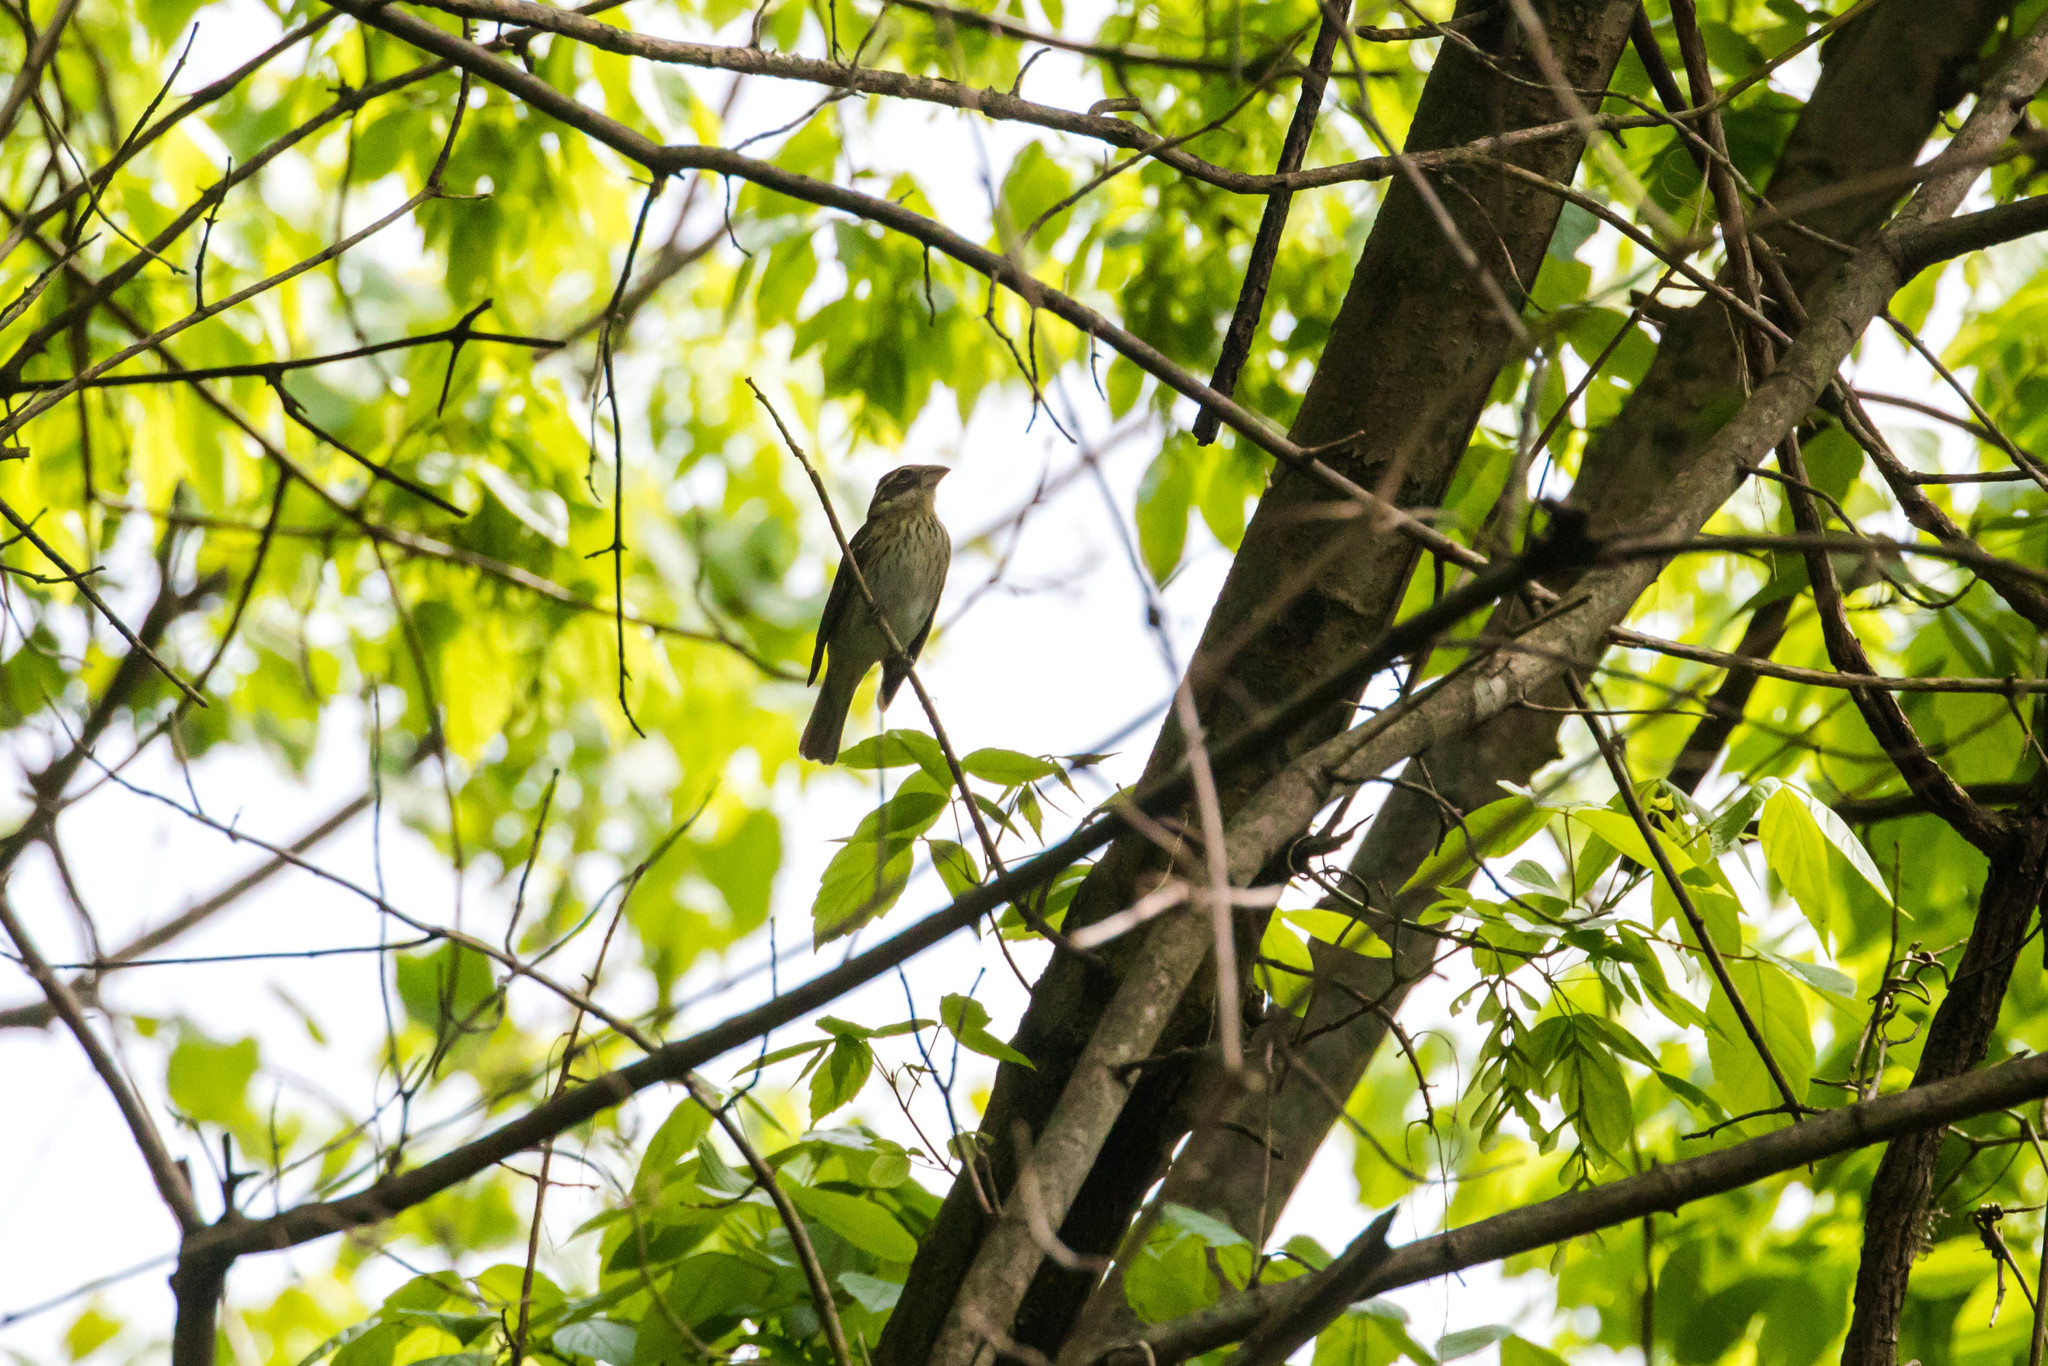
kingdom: Animalia
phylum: Chordata
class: Aves
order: Passeriformes
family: Cardinalidae
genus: Pheucticus
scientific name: Pheucticus ludovicianus
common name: Rose-breasted grosbeak
